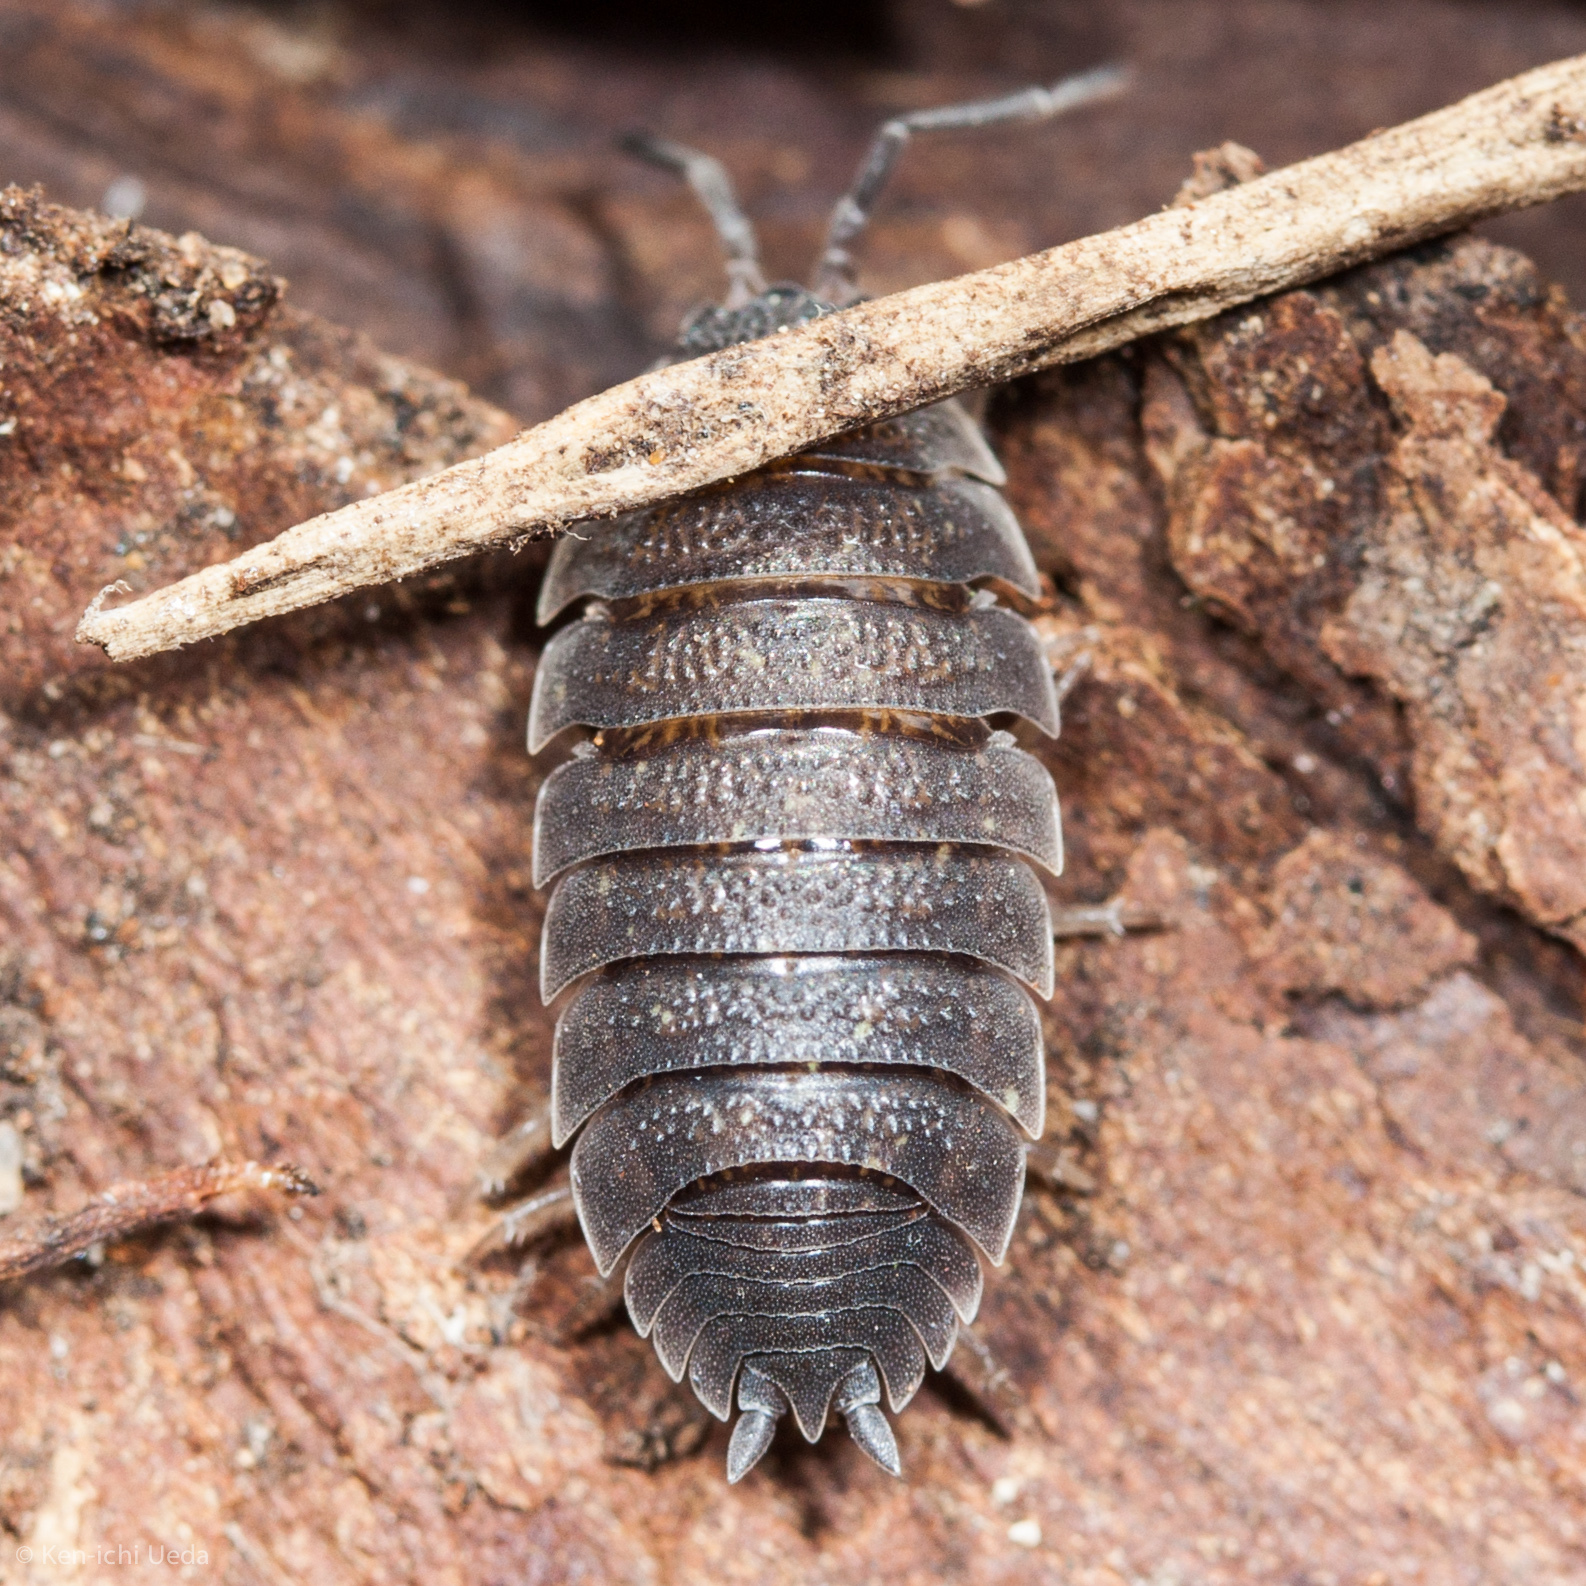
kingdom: Animalia
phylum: Arthropoda
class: Malacostraca
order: Isopoda
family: Porcellionidae
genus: Porcellio
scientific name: Porcellio scaber
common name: Common rough woodlouse
